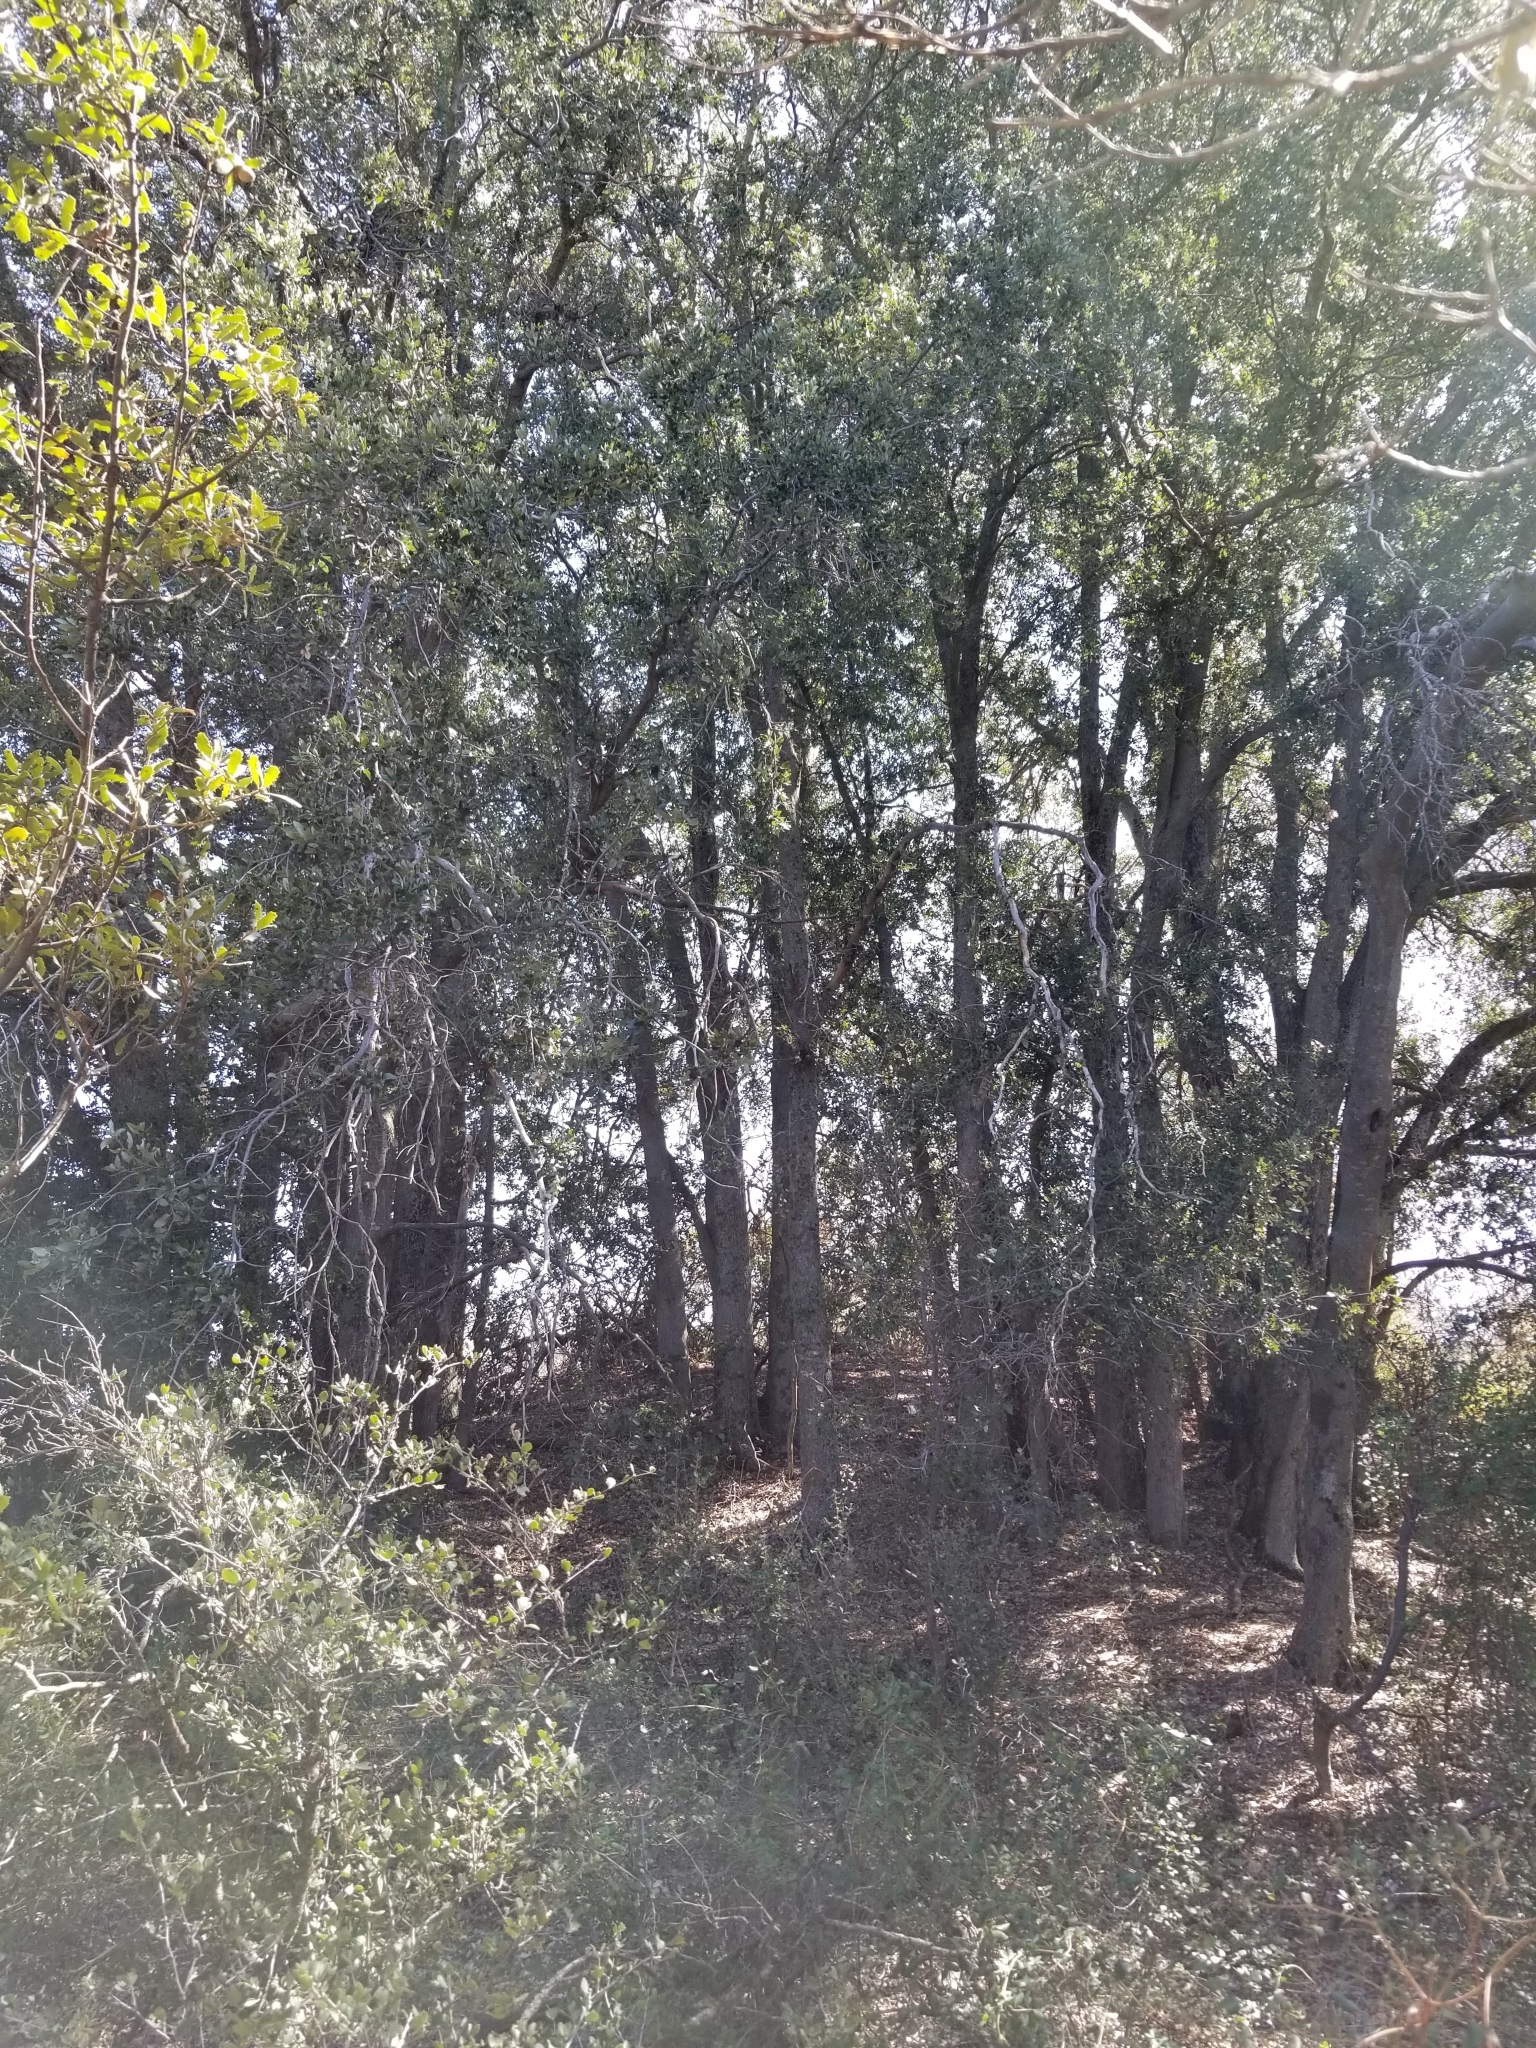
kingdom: Plantae
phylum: Tracheophyta
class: Magnoliopsida
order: Fagales
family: Fagaceae
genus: Quercus
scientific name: Quercus chrysolepis
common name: Canyon live oak
